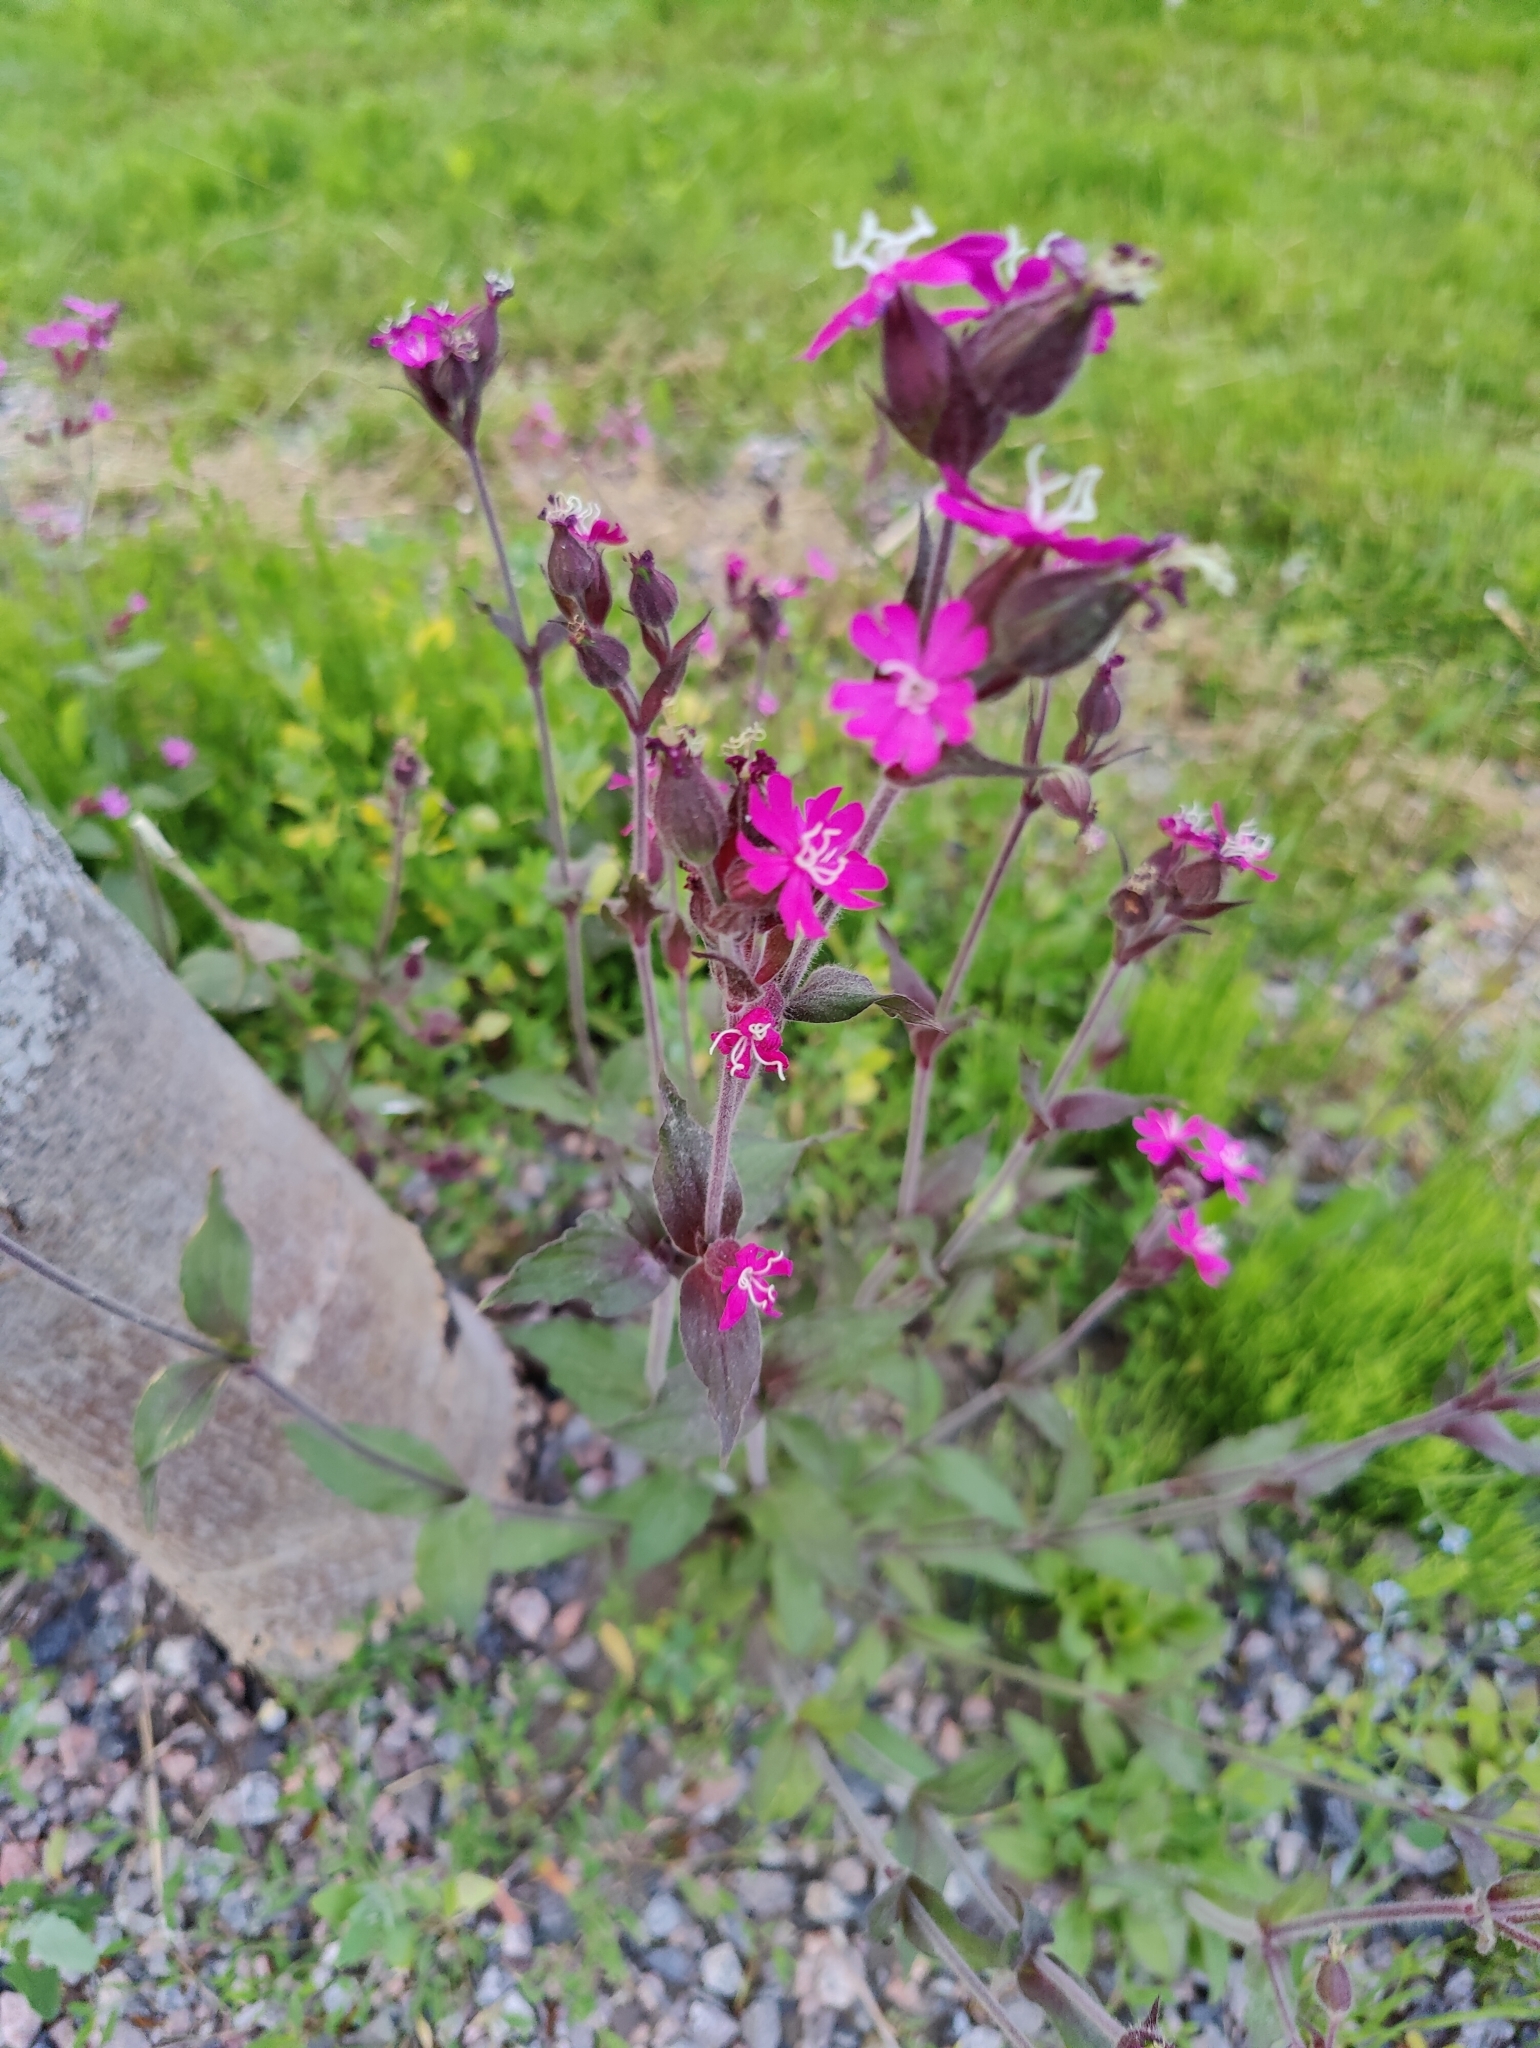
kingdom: Plantae
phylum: Tracheophyta
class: Magnoliopsida
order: Caryophyllales
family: Caryophyllaceae
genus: Silene
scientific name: Silene dioica
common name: Red campion
